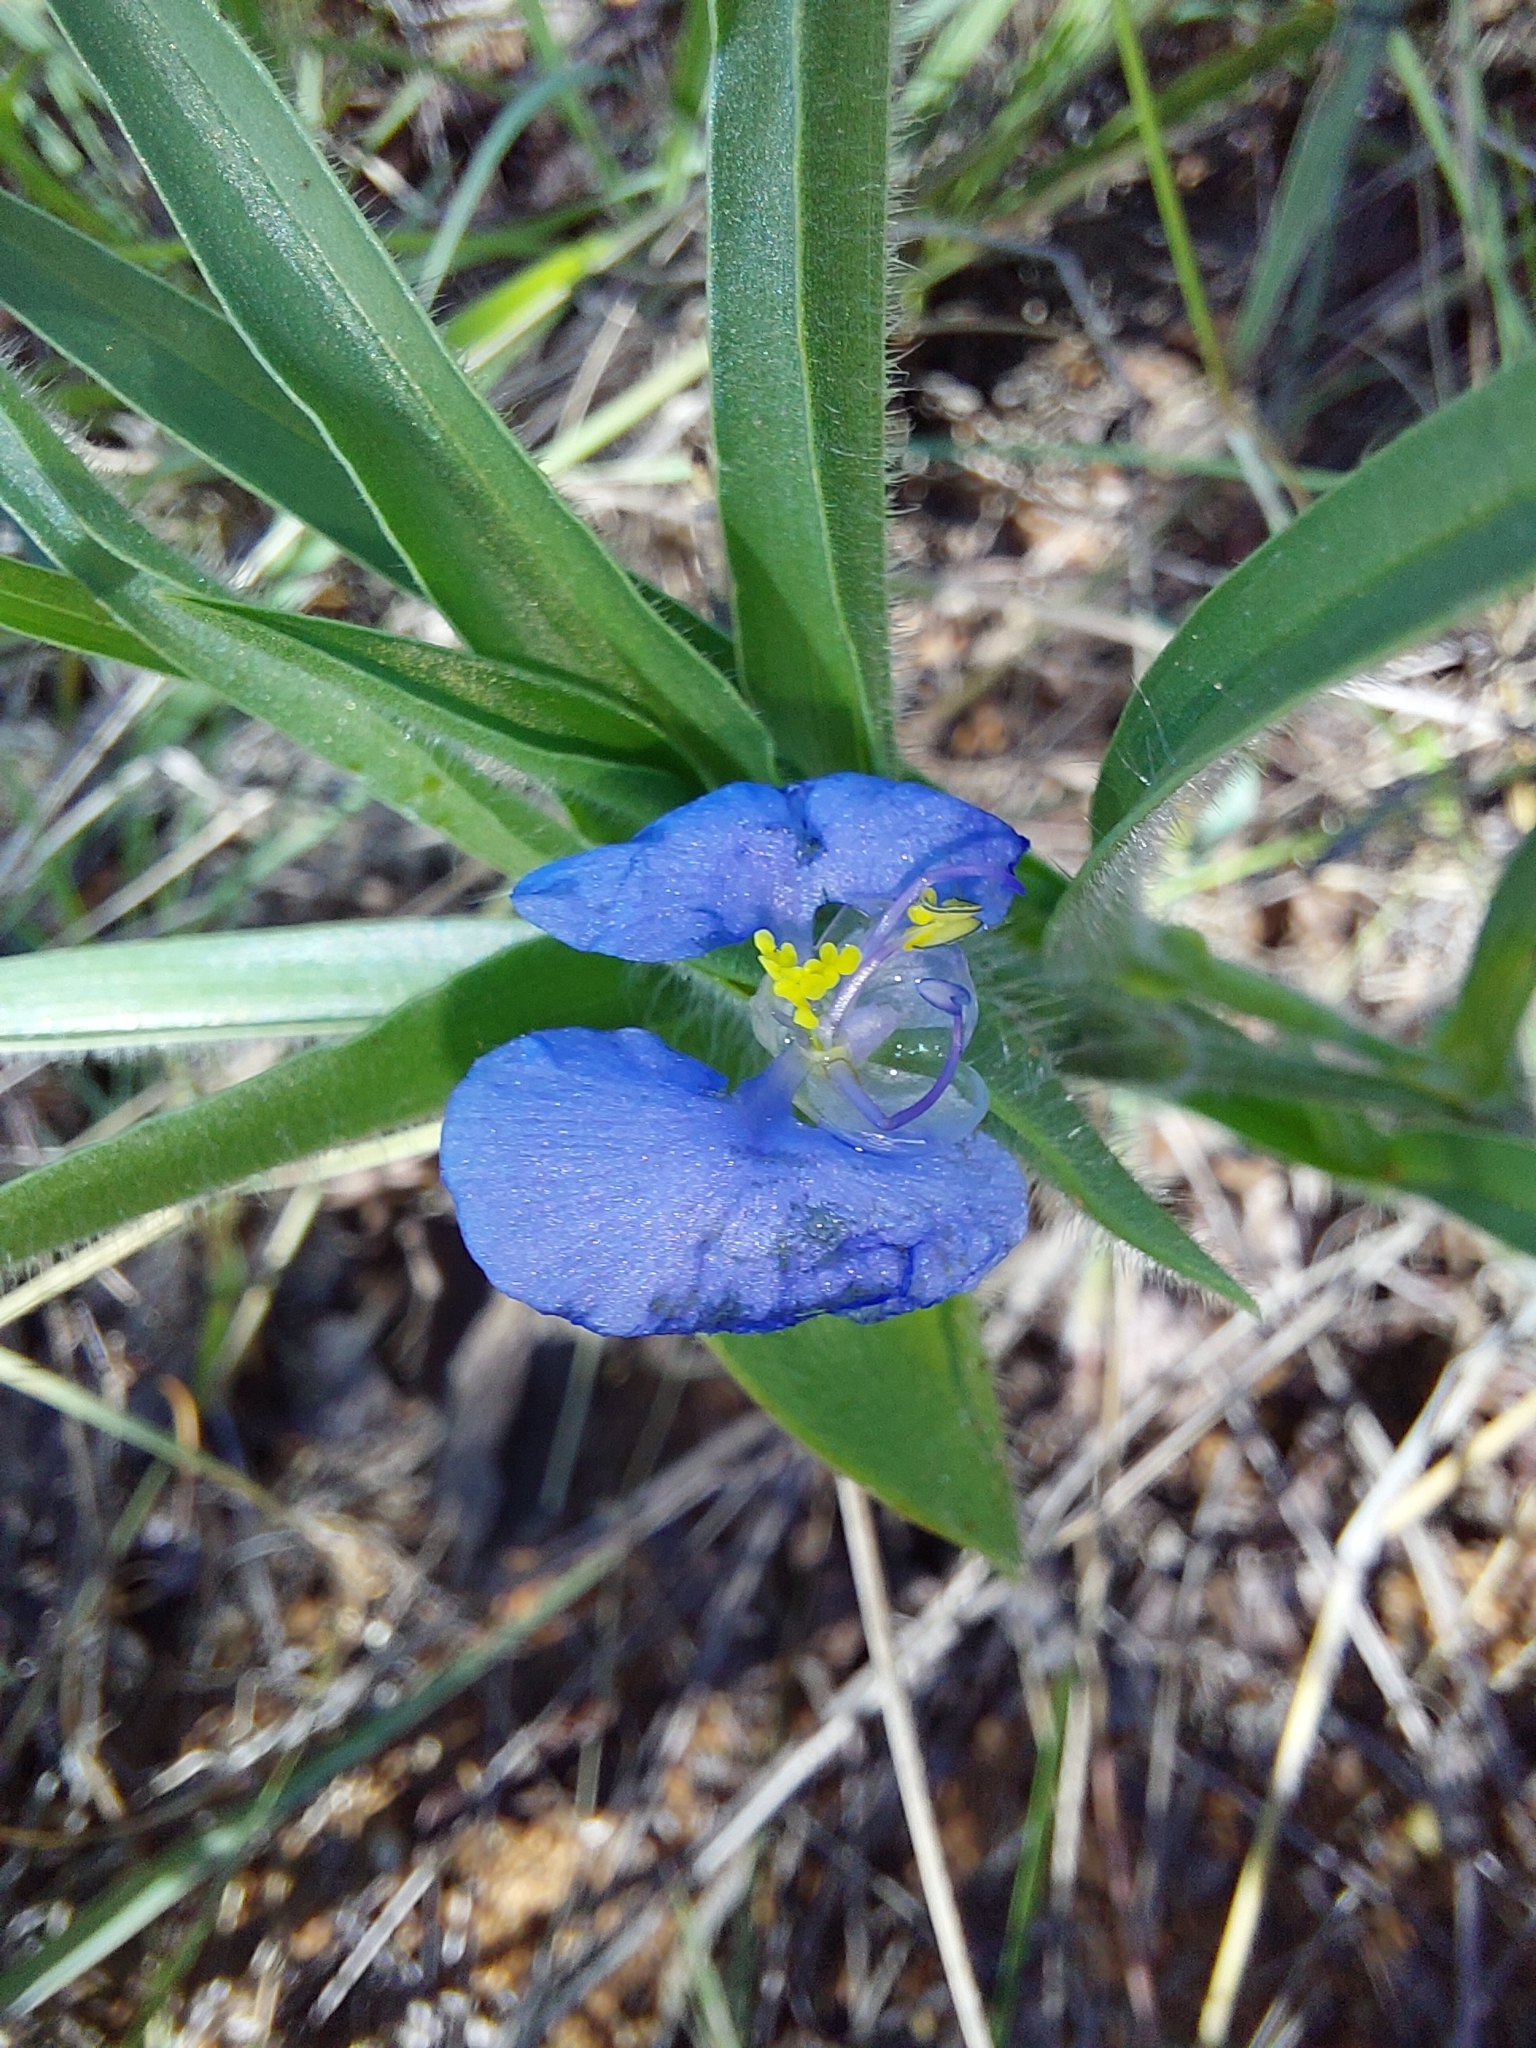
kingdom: Plantae
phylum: Tracheophyta
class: Liliopsida
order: Commelinales
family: Commelinaceae
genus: Commelina
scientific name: Commelina erecta
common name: Blousel blommetjie
